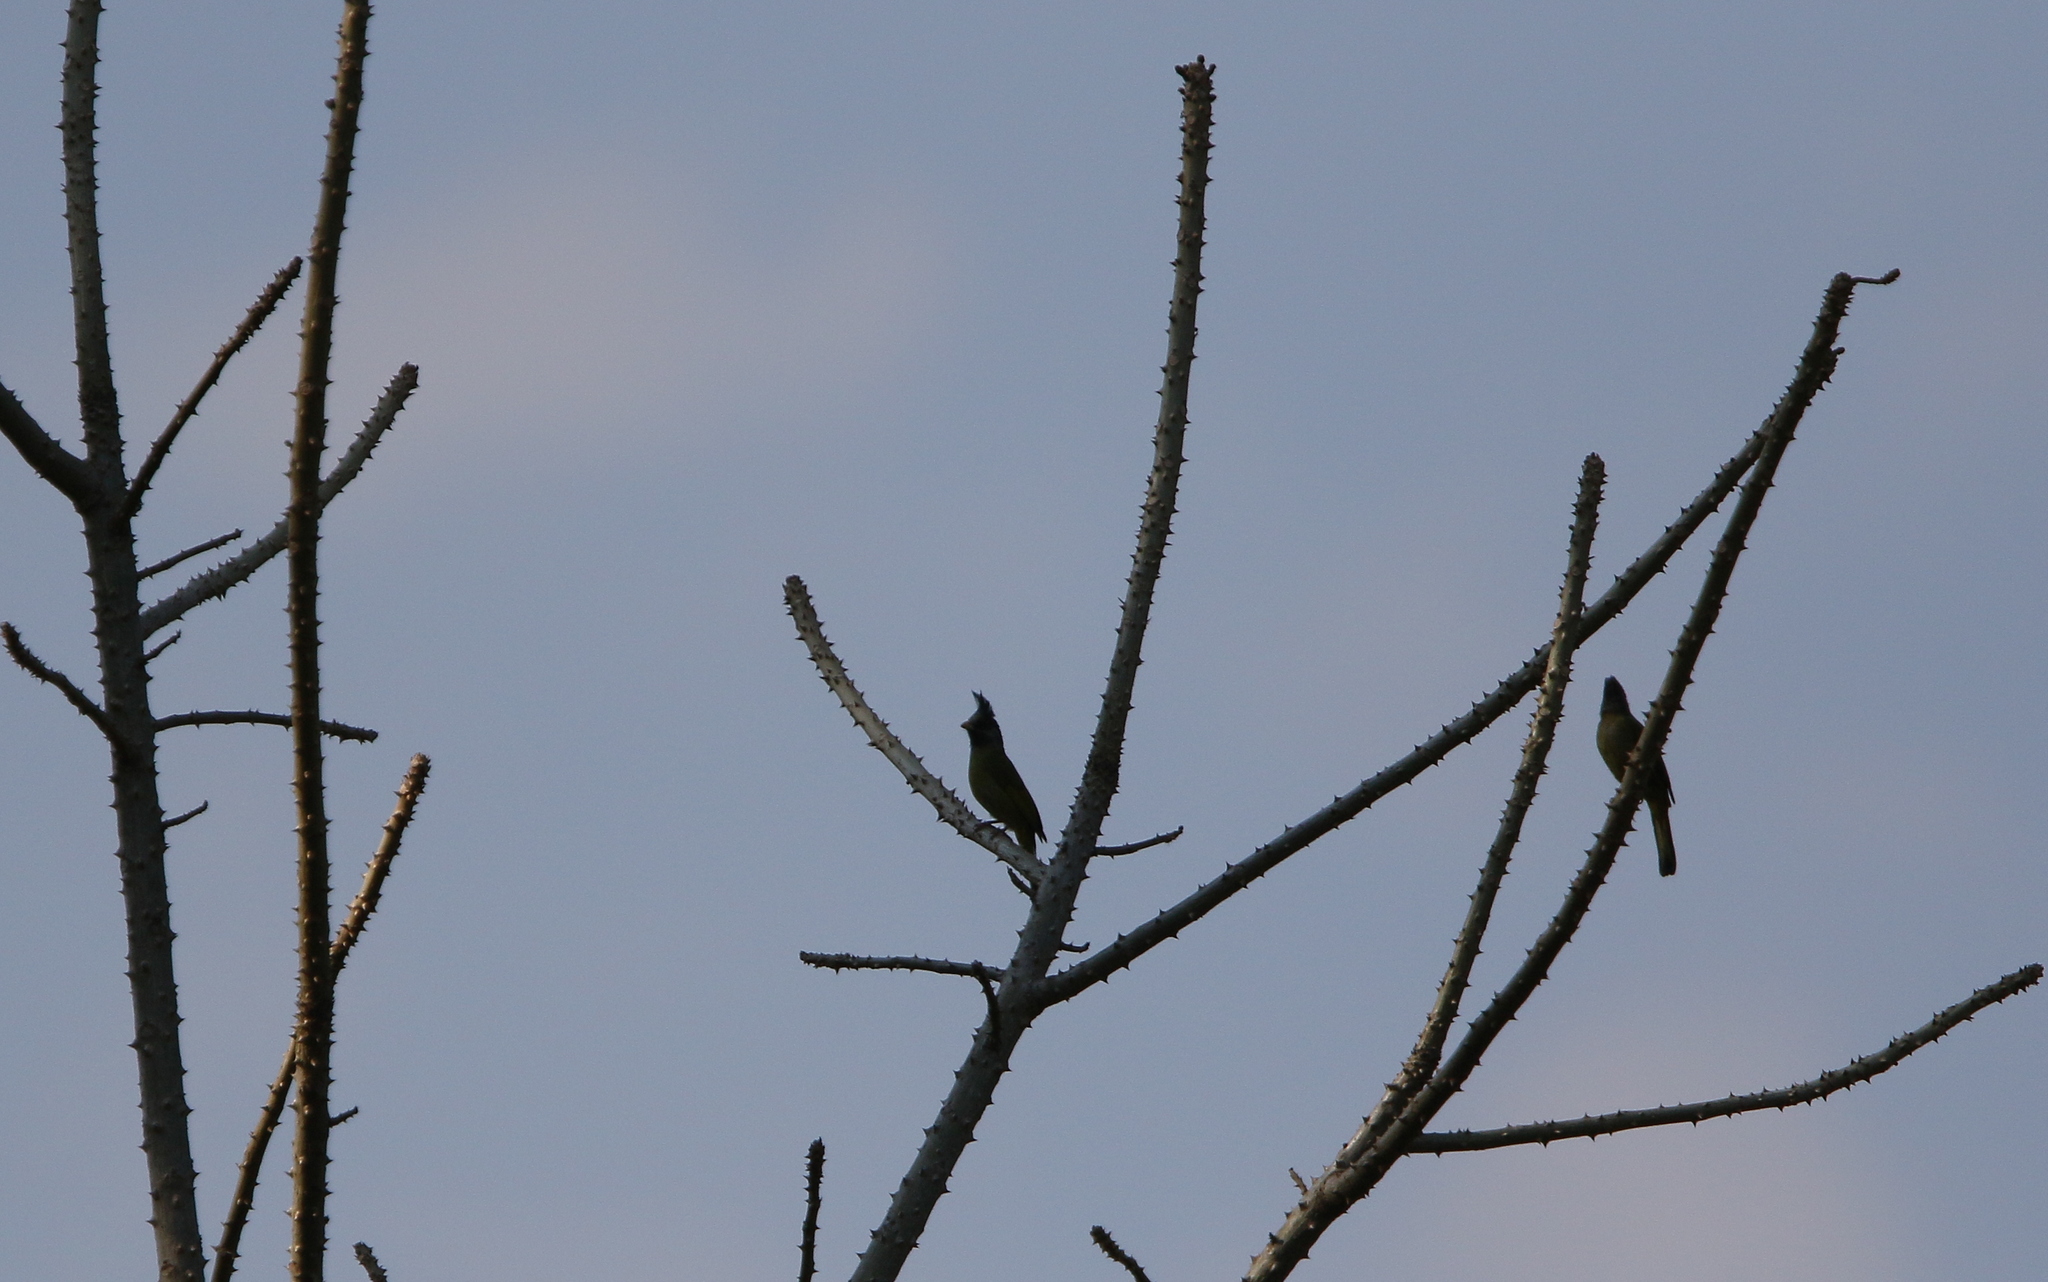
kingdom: Animalia
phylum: Chordata
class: Aves
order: Passeriformes
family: Pycnonotidae
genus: Spizixos
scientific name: Spizixos canifrons
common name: Crested finchbill
